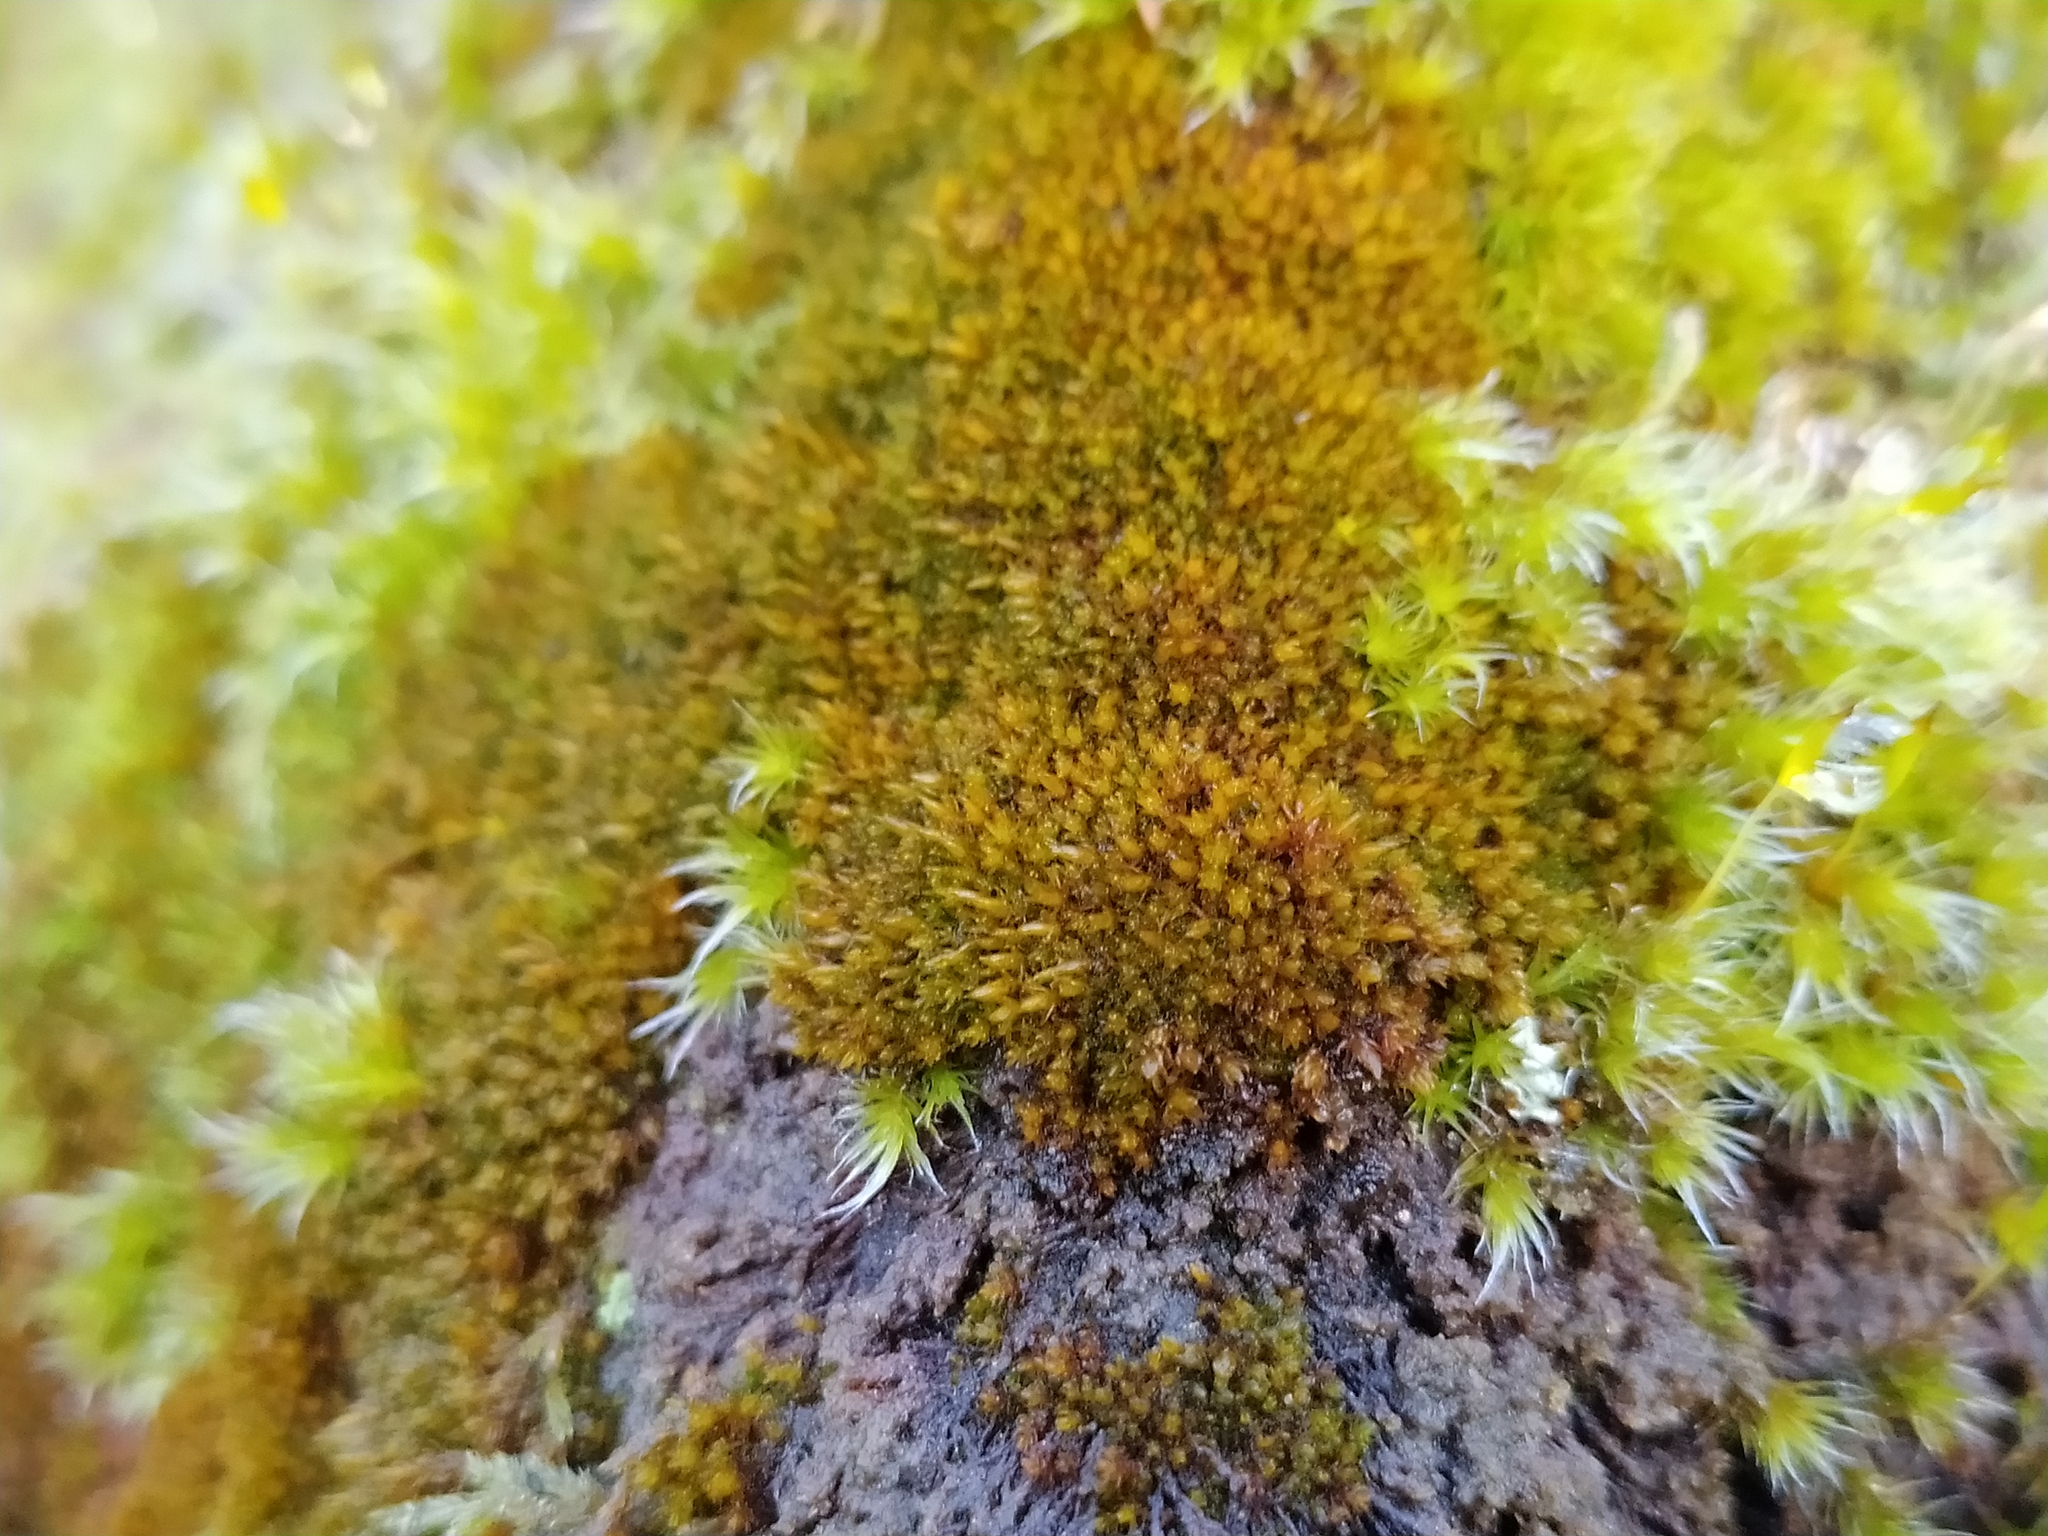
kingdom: Plantae
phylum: Bryophyta
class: Andreaeopsida
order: Andreaeales
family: Andreaeaceae
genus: Andreaea
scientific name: Andreaea rupestris
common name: Black rock moss
